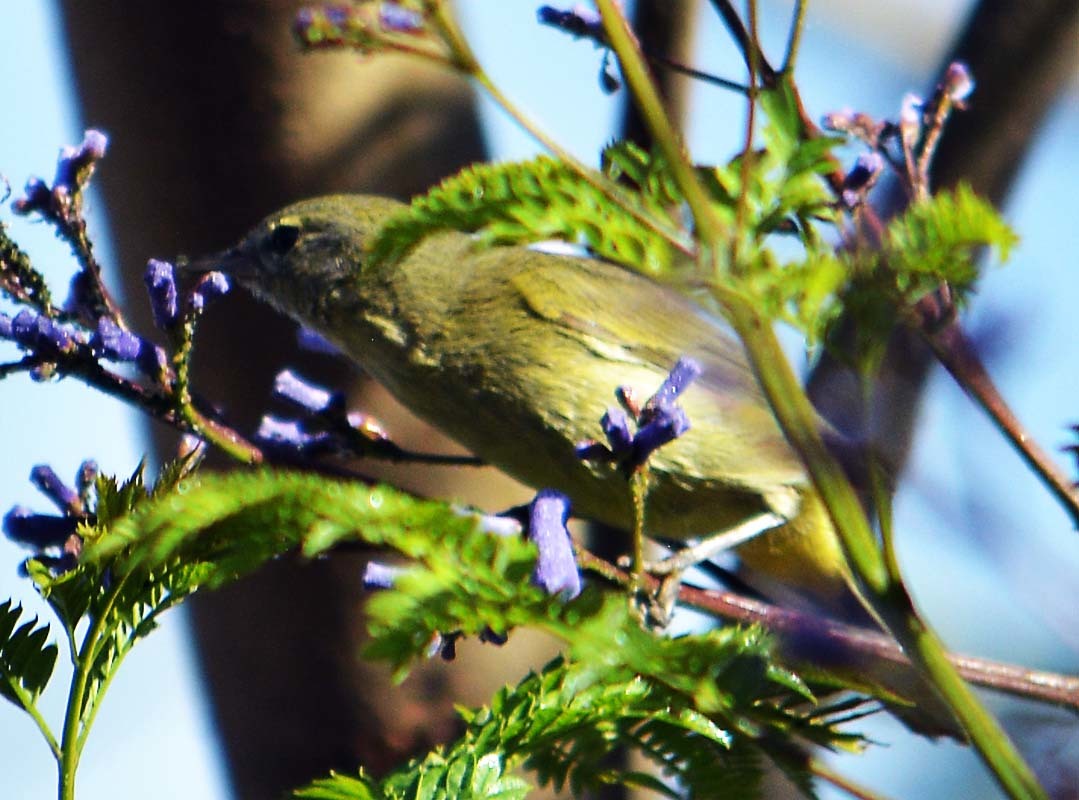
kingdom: Animalia
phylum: Chordata
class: Aves
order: Passeriformes
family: Parulidae
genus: Leiothlypis
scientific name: Leiothlypis celata
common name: Orange-crowned warbler
